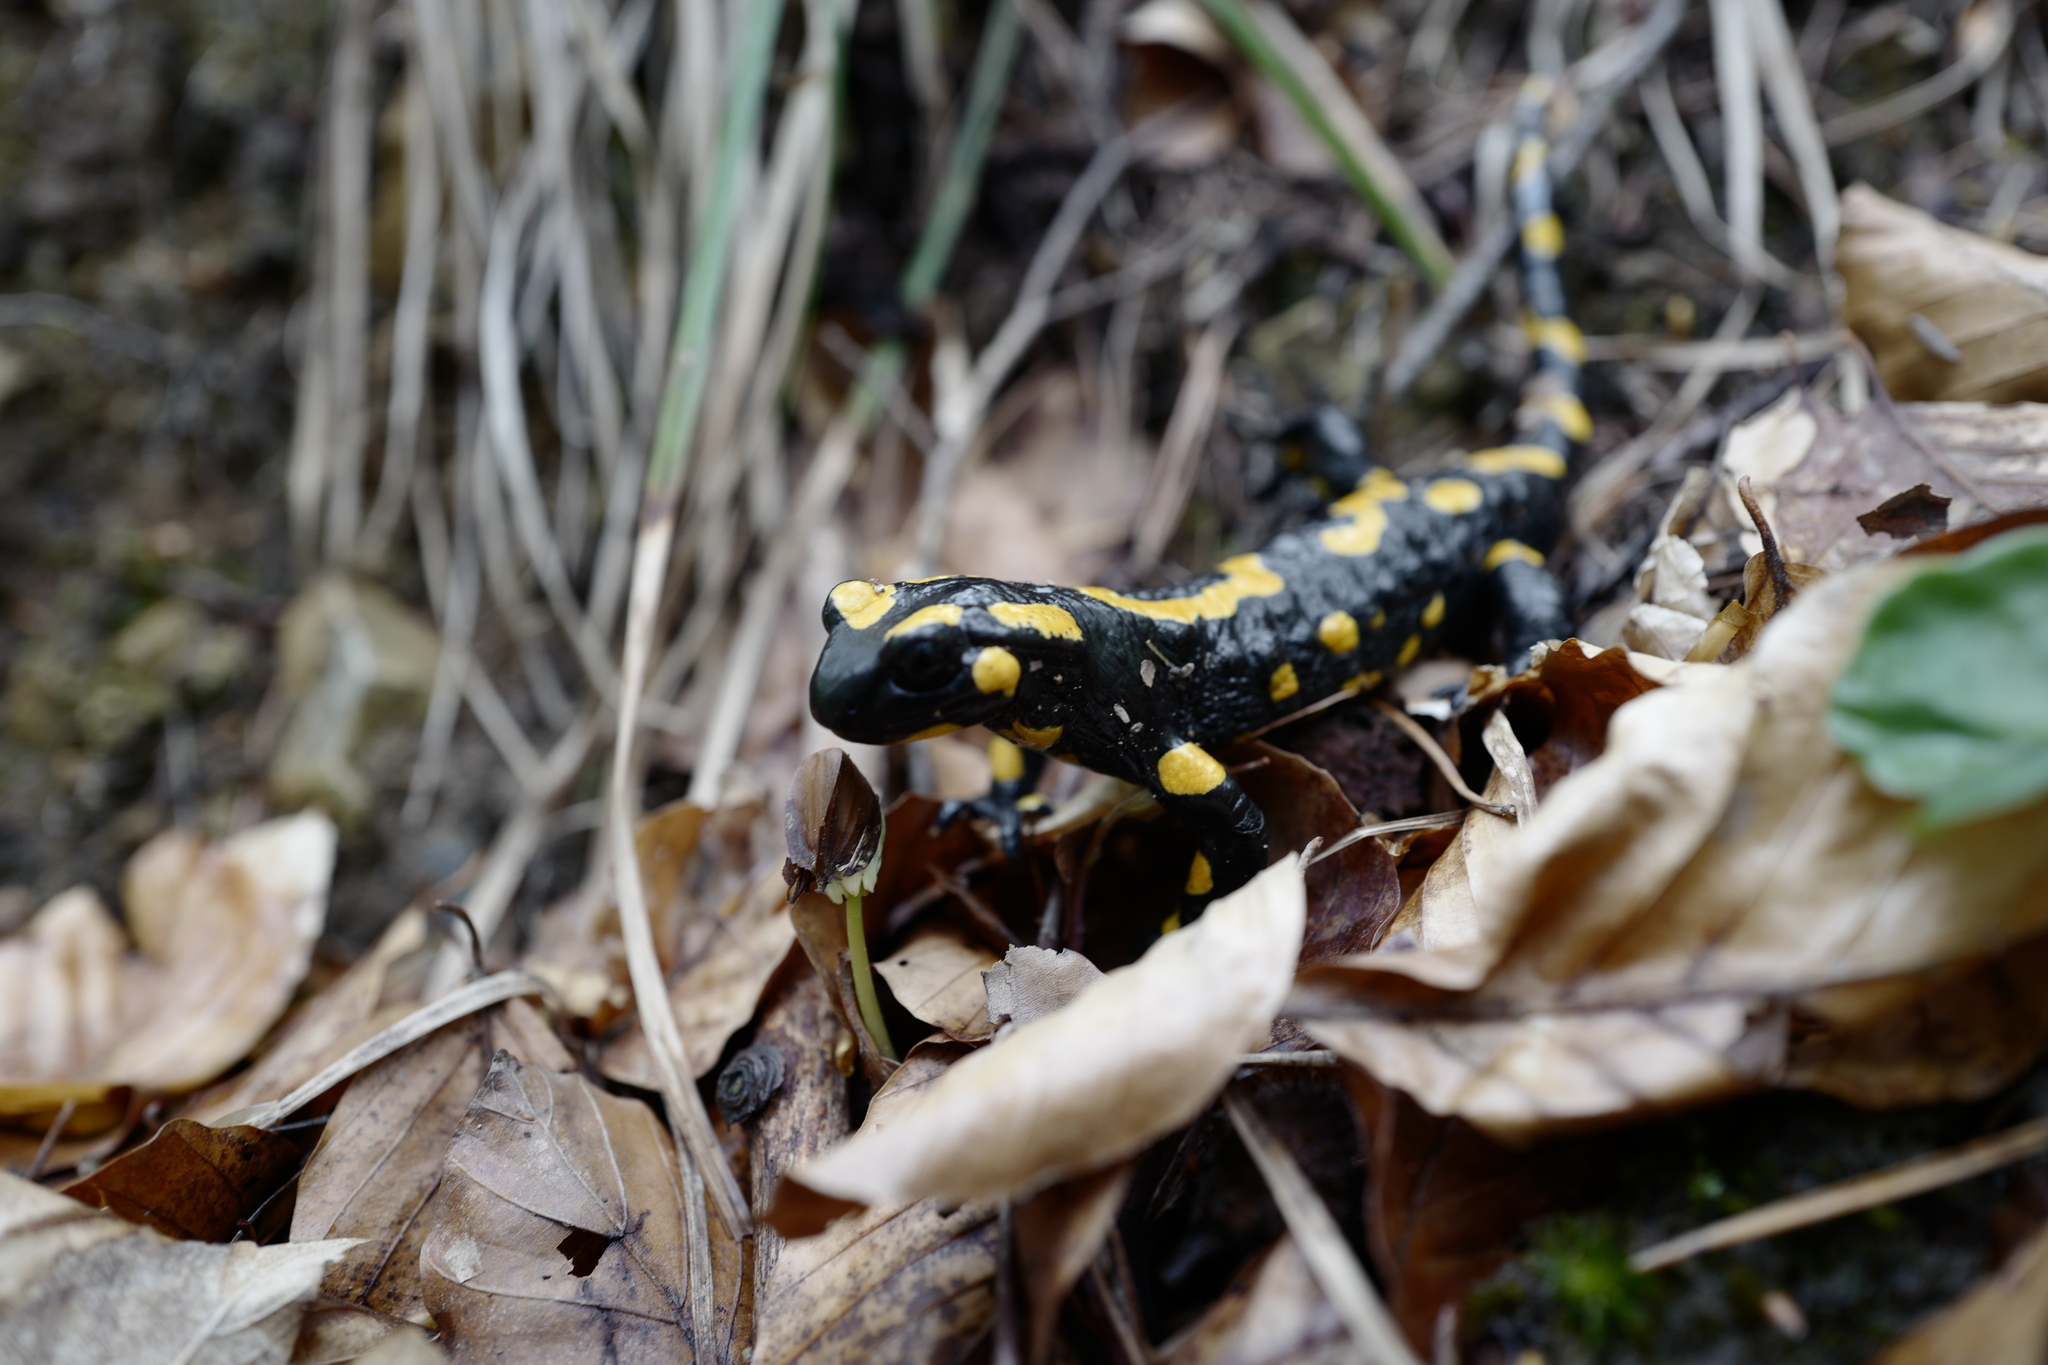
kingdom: Animalia
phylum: Chordata
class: Amphibia
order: Caudata
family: Salamandridae
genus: Salamandra
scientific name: Salamandra salamandra
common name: Fire salamander
